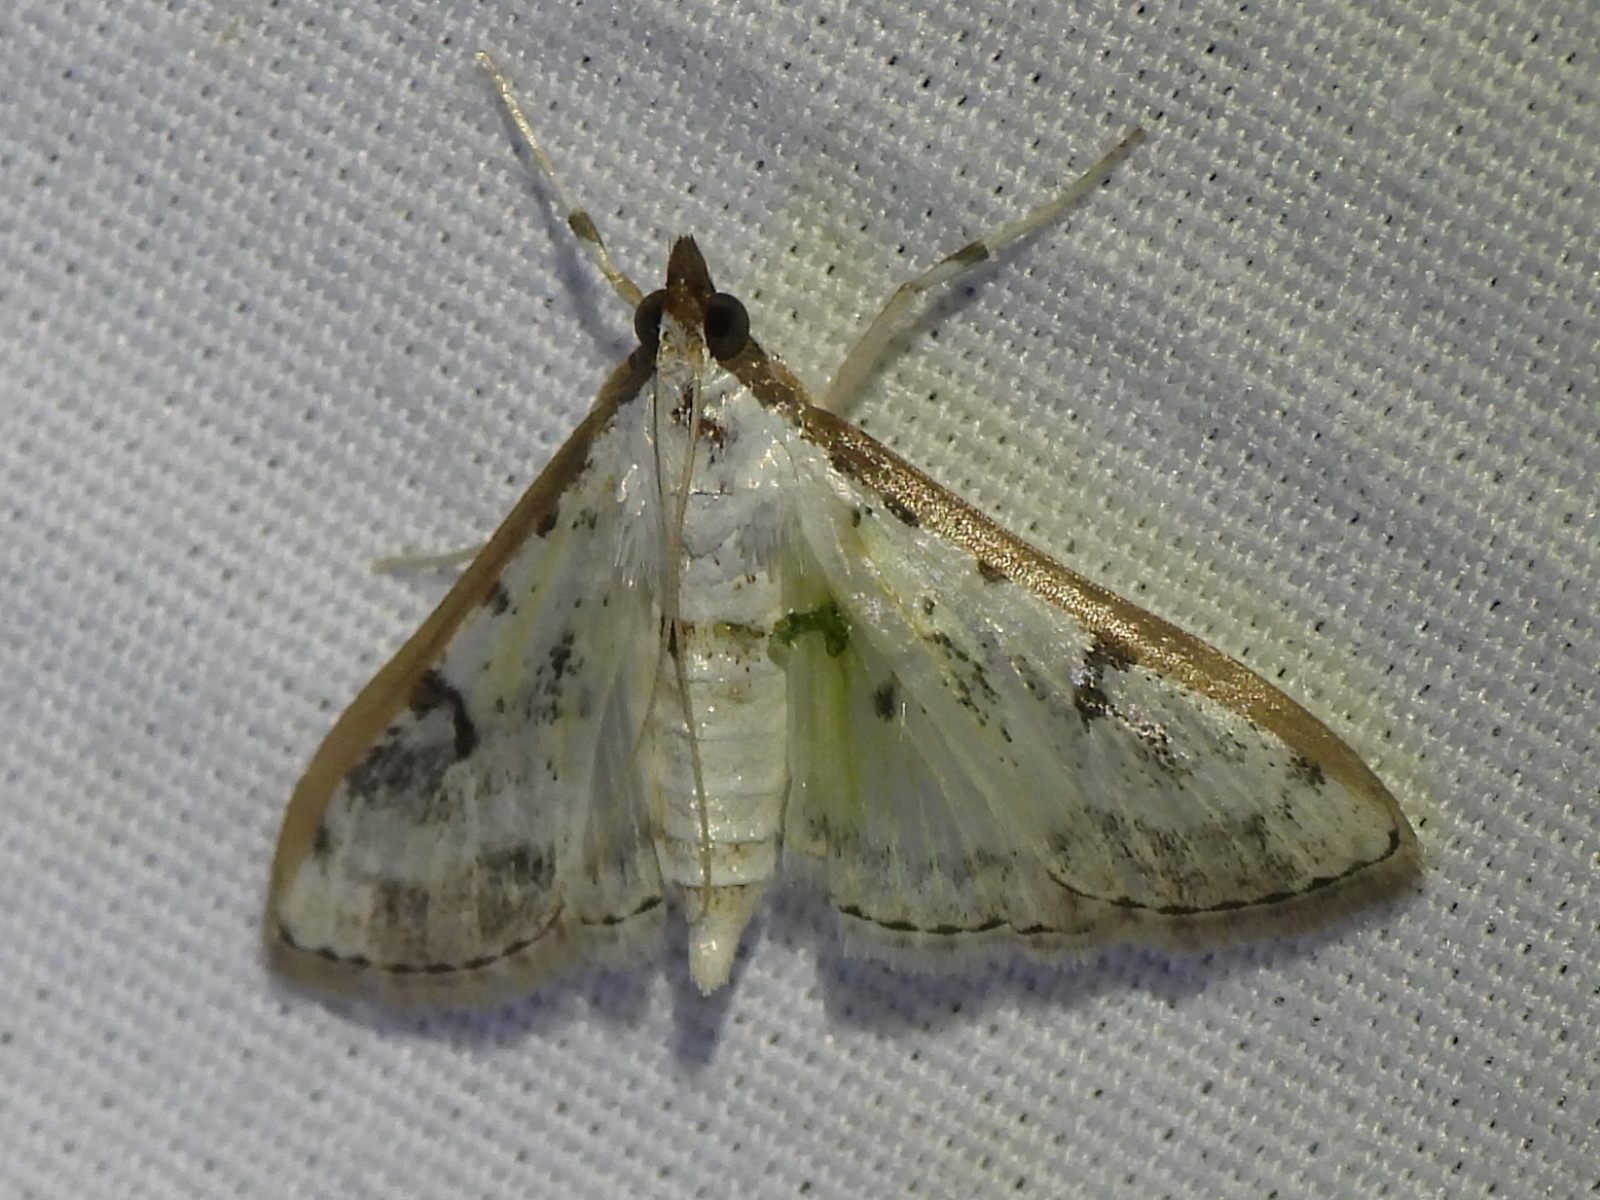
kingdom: Animalia
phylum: Arthropoda
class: Insecta
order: Lepidoptera
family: Crambidae
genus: Palpita
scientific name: Palpita gracilalis
